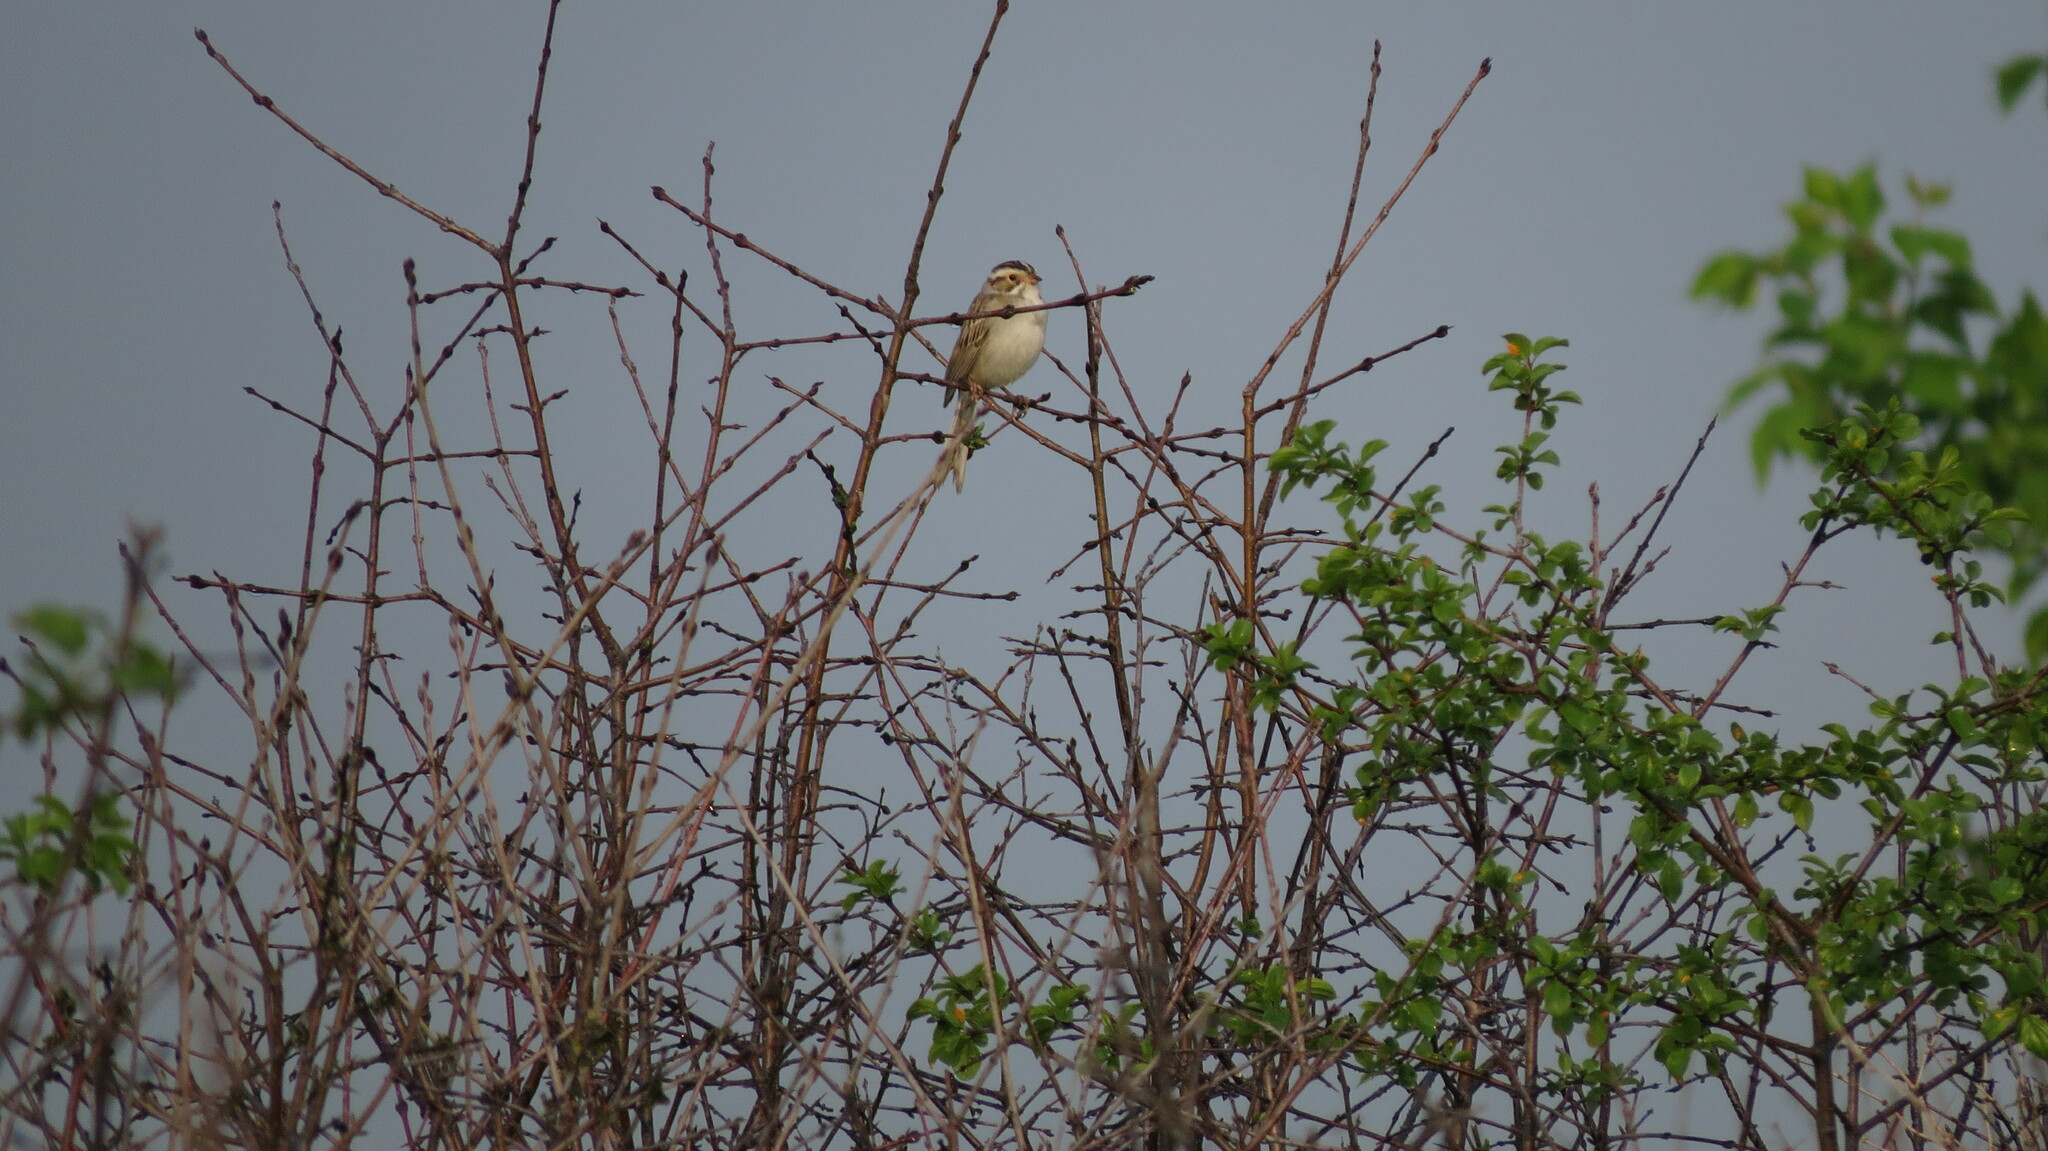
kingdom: Animalia
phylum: Chordata
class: Aves
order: Passeriformes
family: Passerellidae
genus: Spizella
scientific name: Spizella pallida
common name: Clay-colored sparrow
